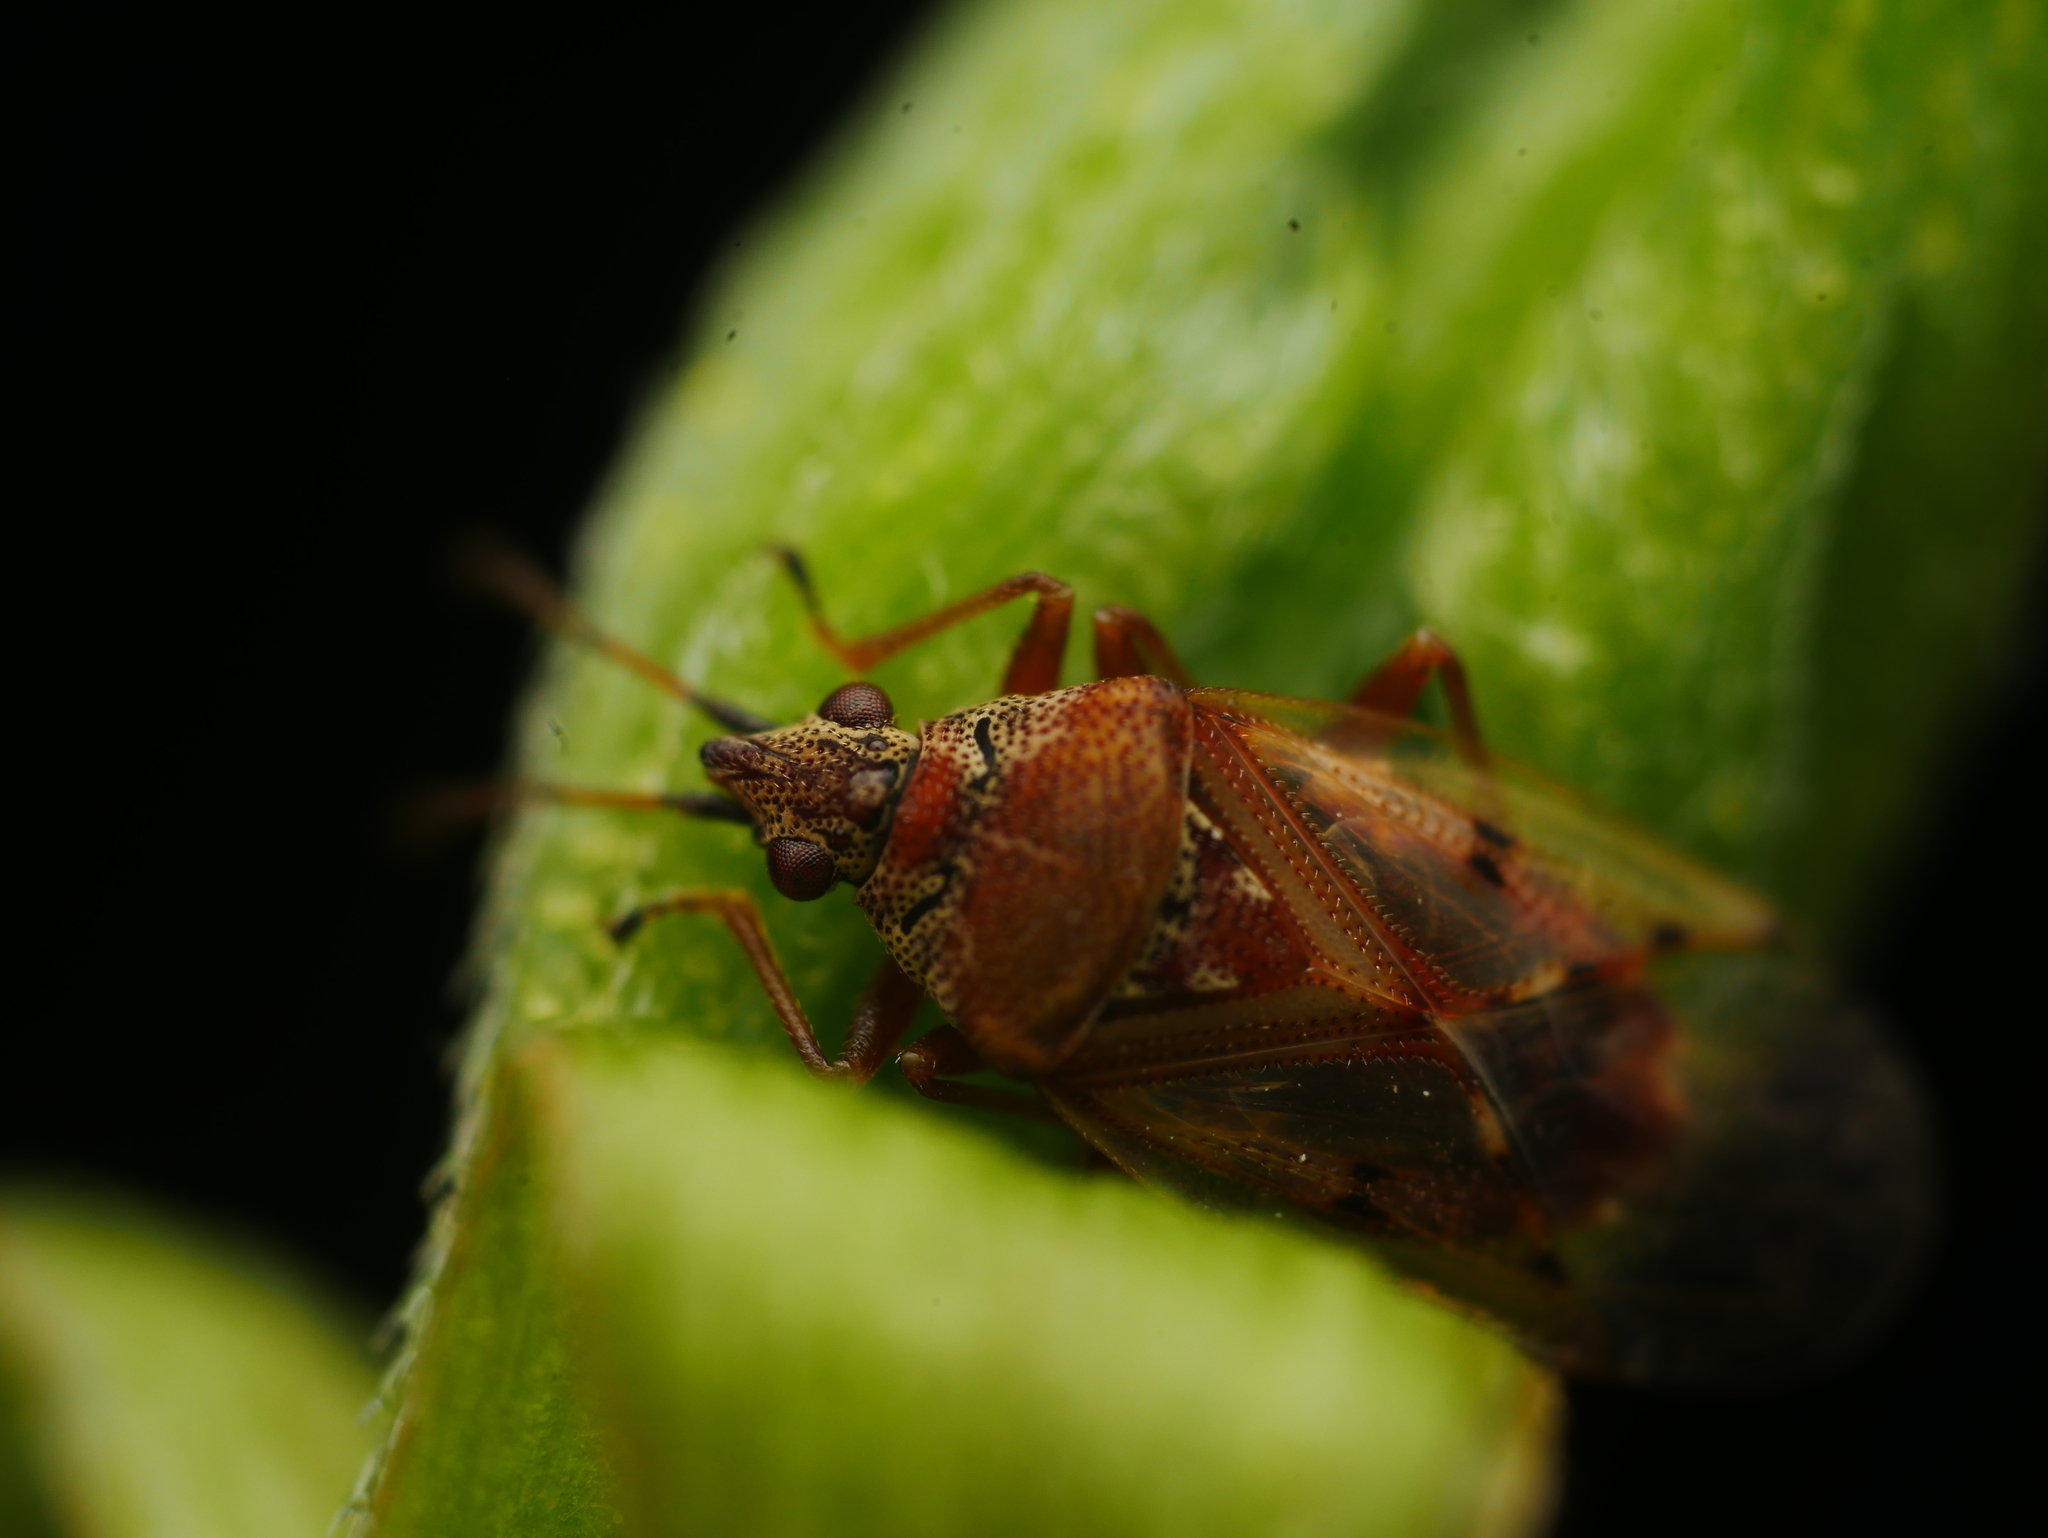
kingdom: Animalia
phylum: Arthropoda
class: Insecta
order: Hemiptera
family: Lygaeidae
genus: Kleidocerys
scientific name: Kleidocerys resedae
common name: Birch catkin bug
